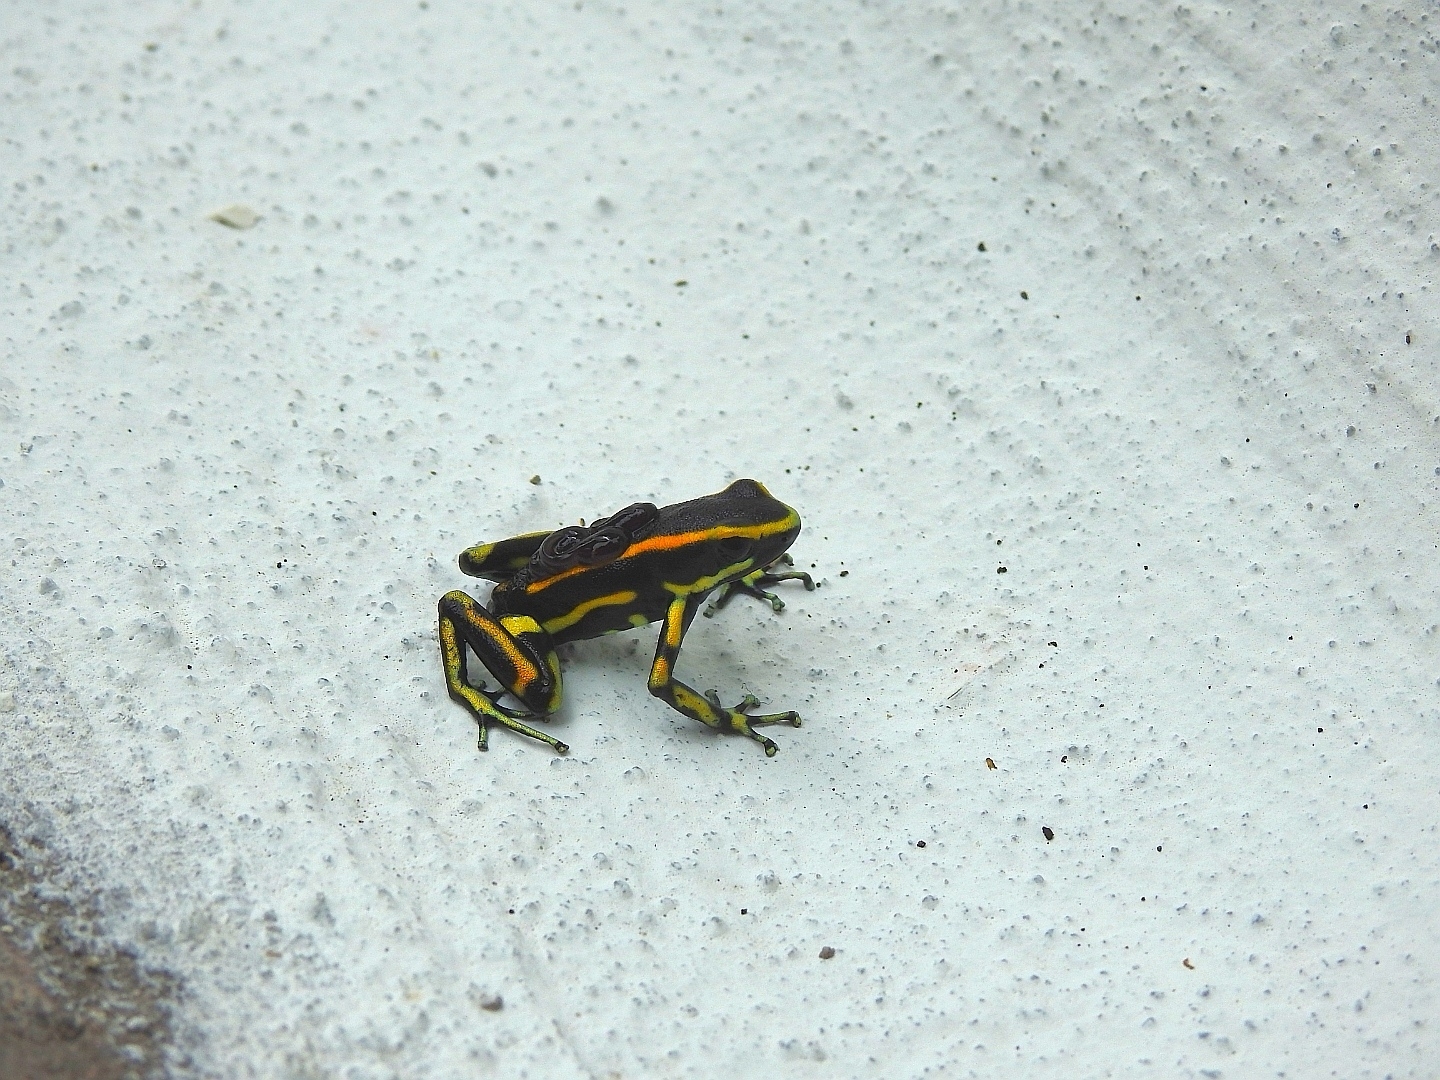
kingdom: Animalia
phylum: Chordata
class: Amphibia
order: Anura
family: Dendrobatidae
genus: Dendrobates
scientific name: Dendrobates truncatus
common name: Yellow-striped poison frog
